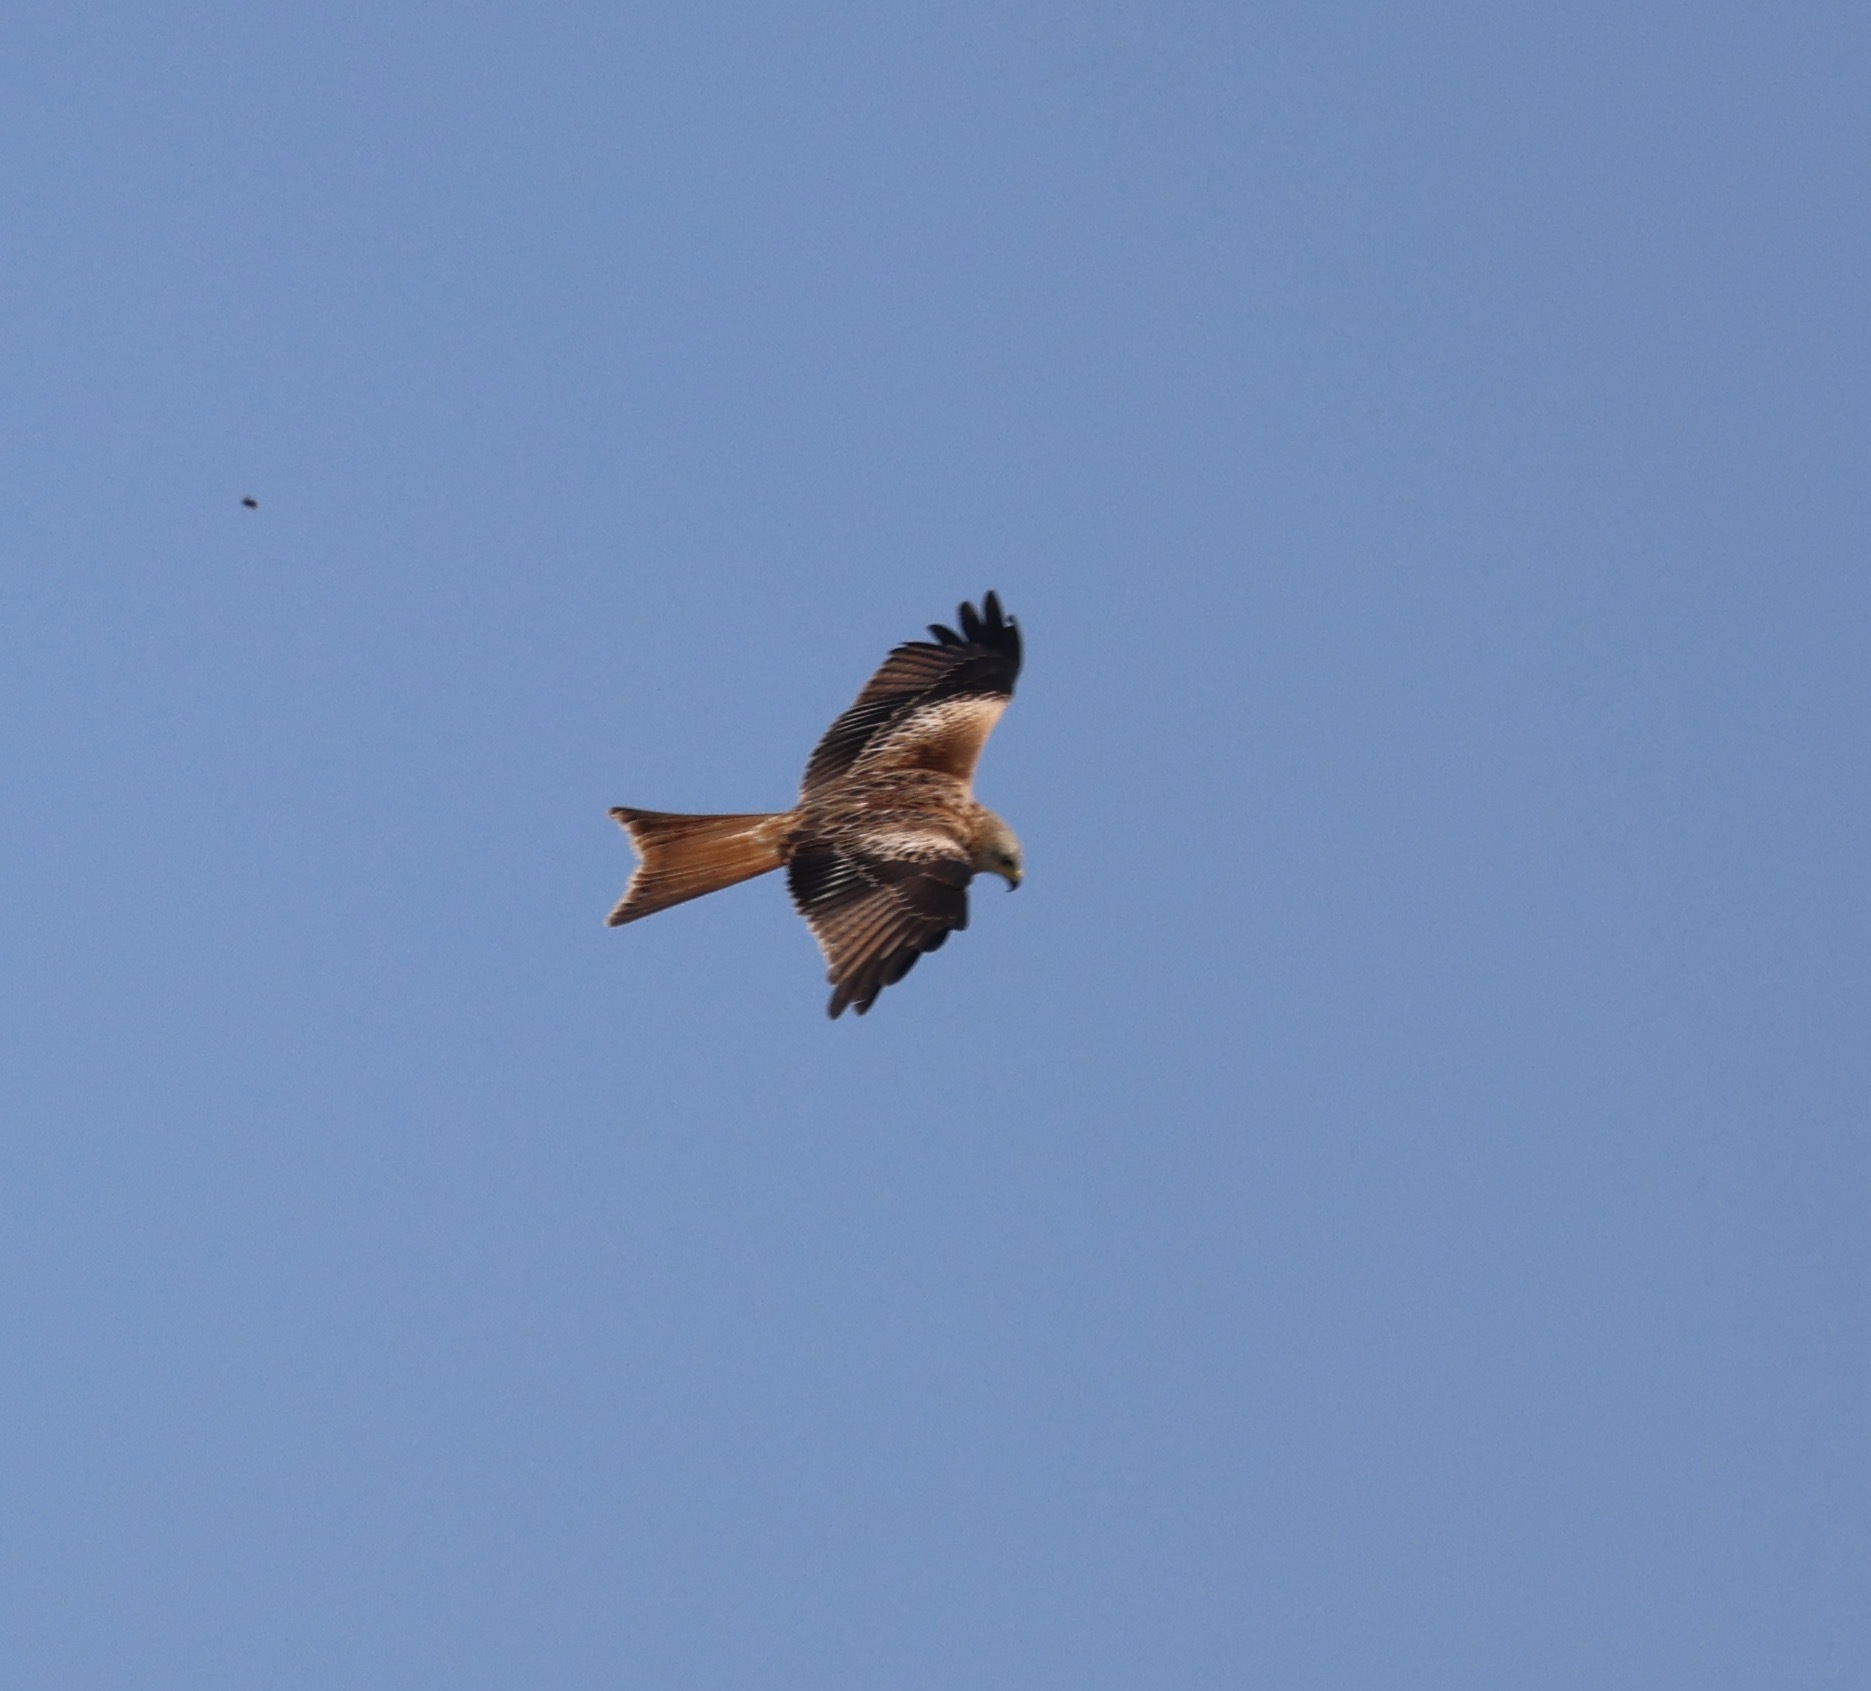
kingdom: Animalia
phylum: Chordata
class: Aves
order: Accipitriformes
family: Accipitridae
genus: Milvus
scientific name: Milvus milvus
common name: Red kite
